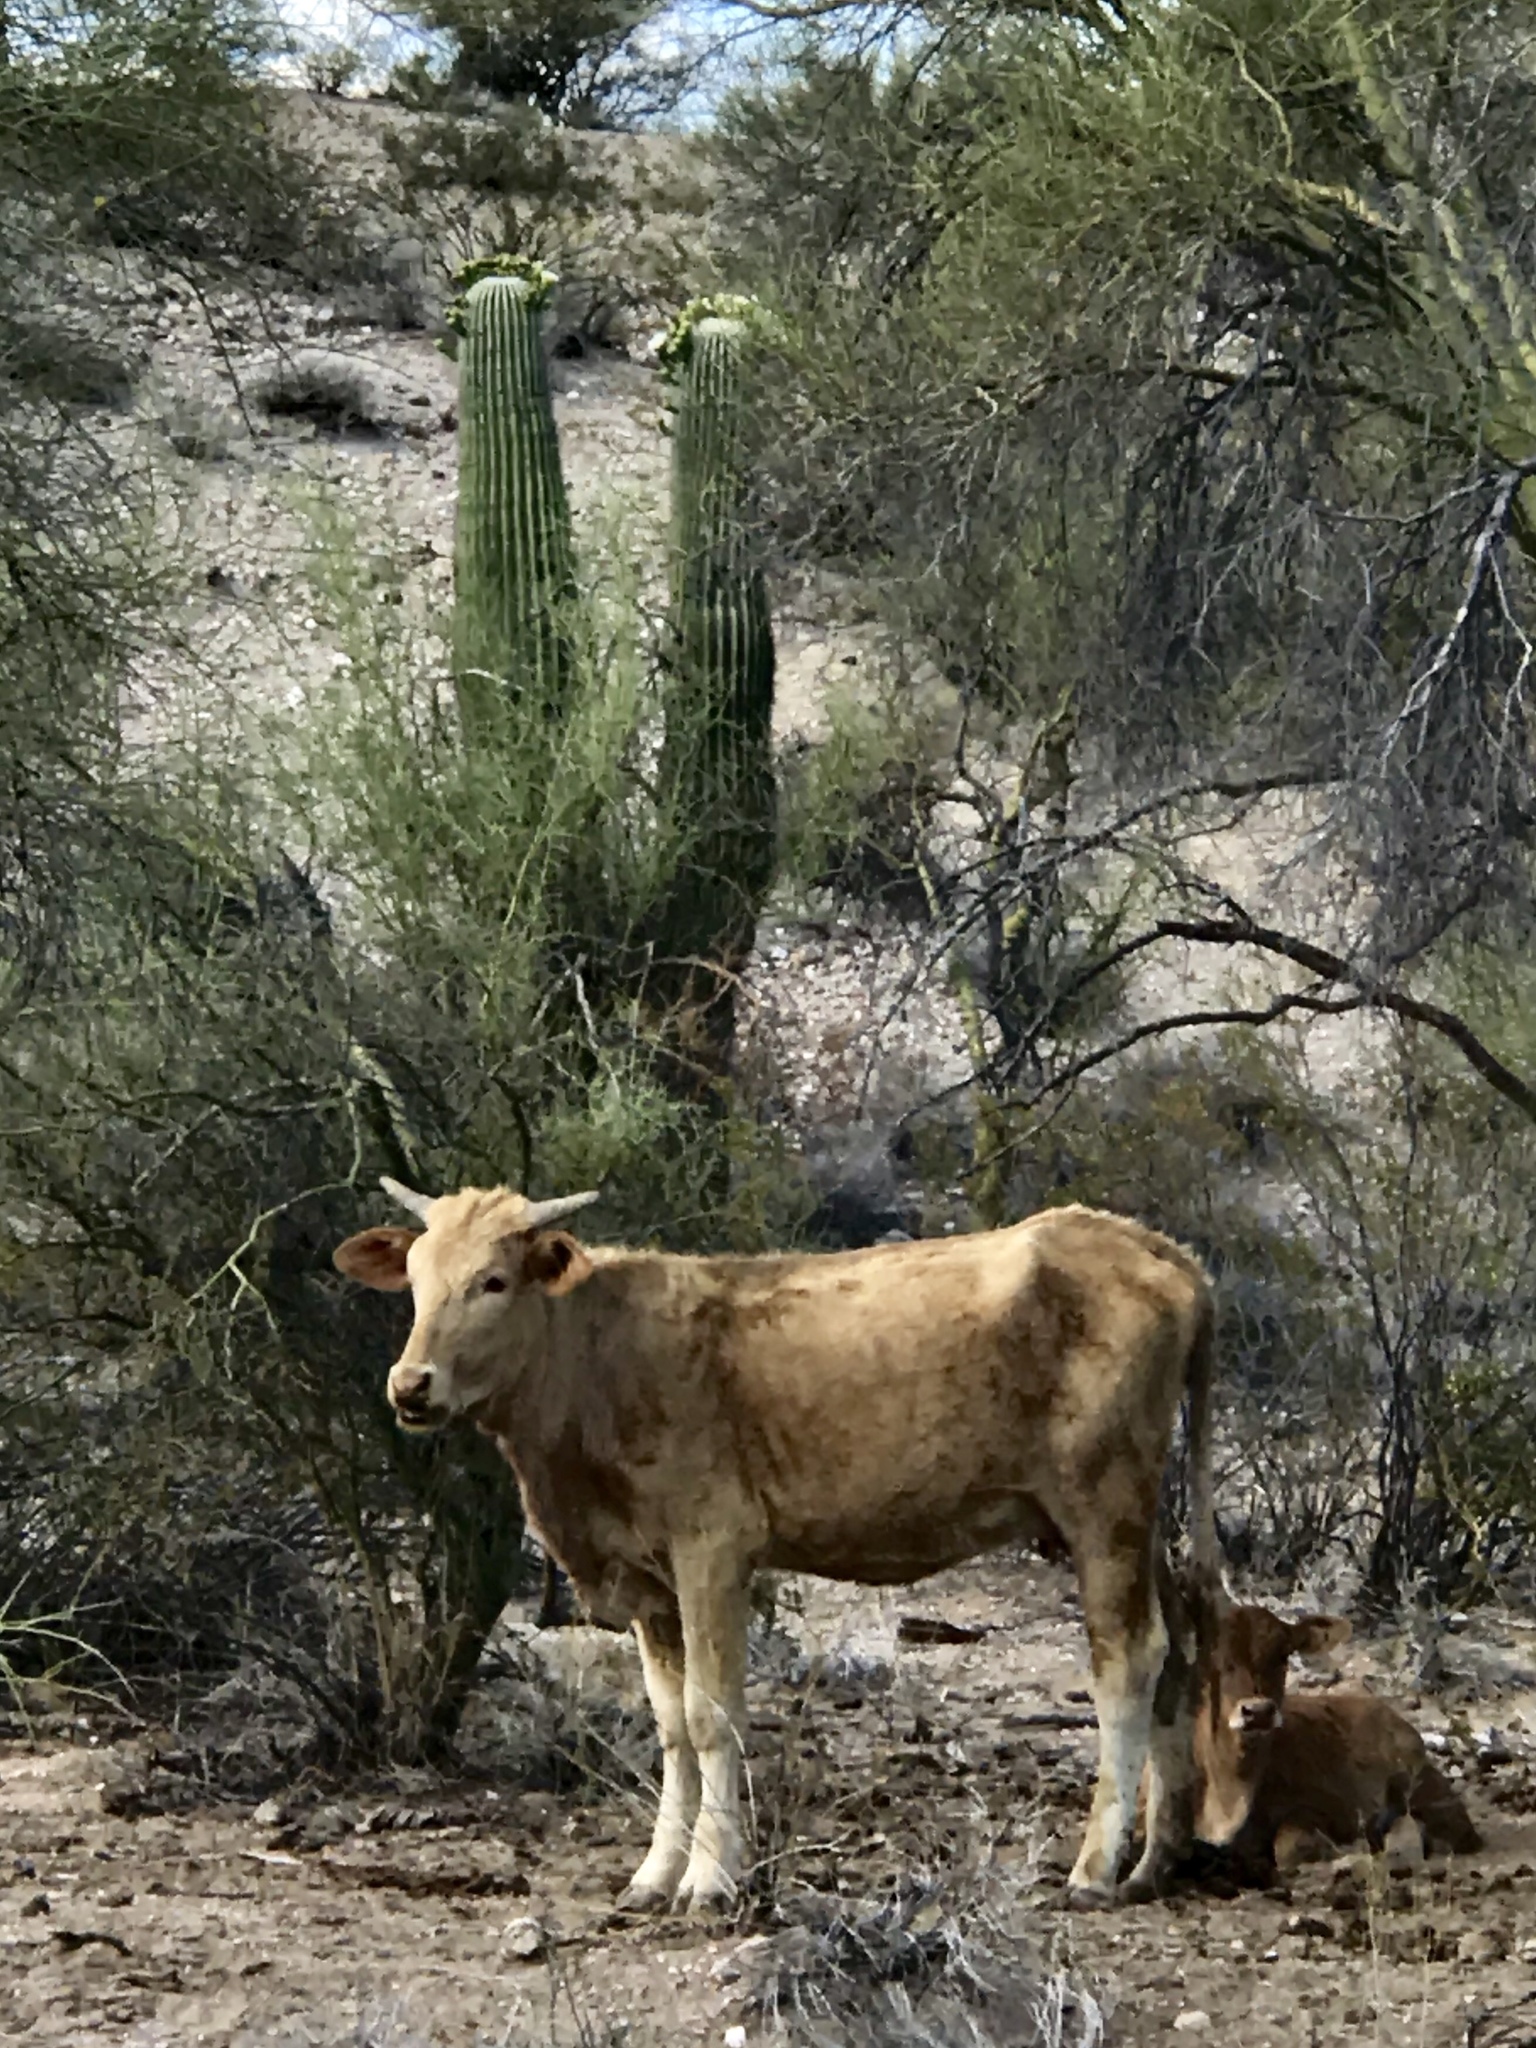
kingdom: Plantae
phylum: Tracheophyta
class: Magnoliopsida
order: Caryophyllales
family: Cactaceae
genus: Carnegiea
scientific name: Carnegiea gigantea
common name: Saguaro
